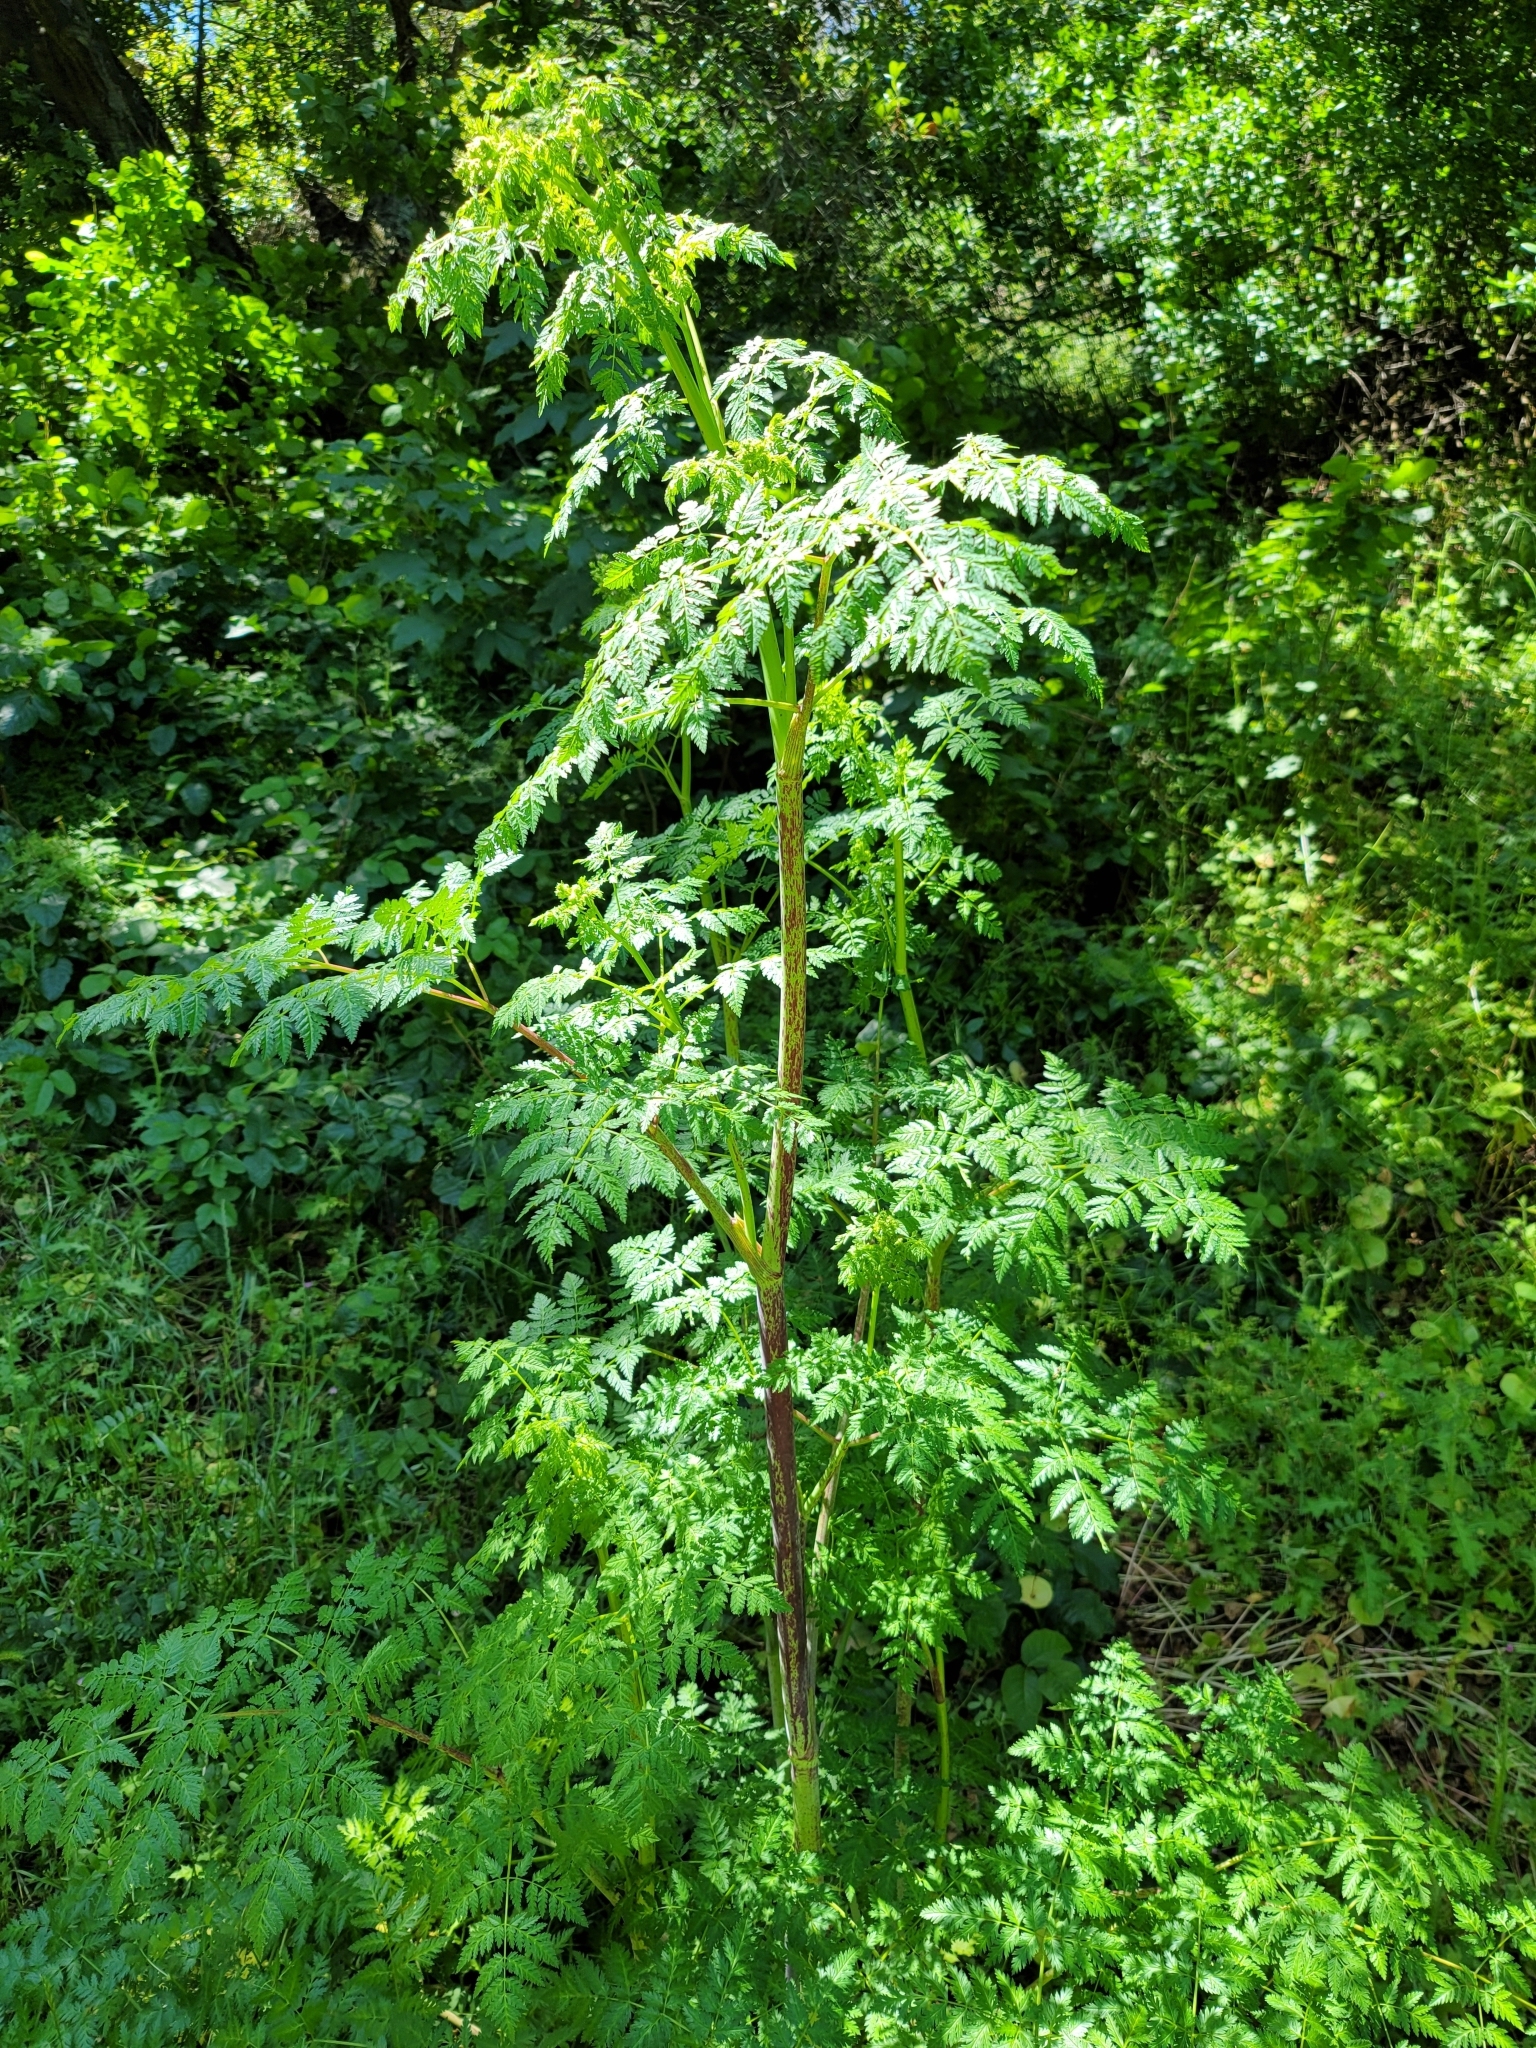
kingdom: Plantae
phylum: Tracheophyta
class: Magnoliopsida
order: Apiales
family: Apiaceae
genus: Conium
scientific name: Conium maculatum
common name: Hemlock
